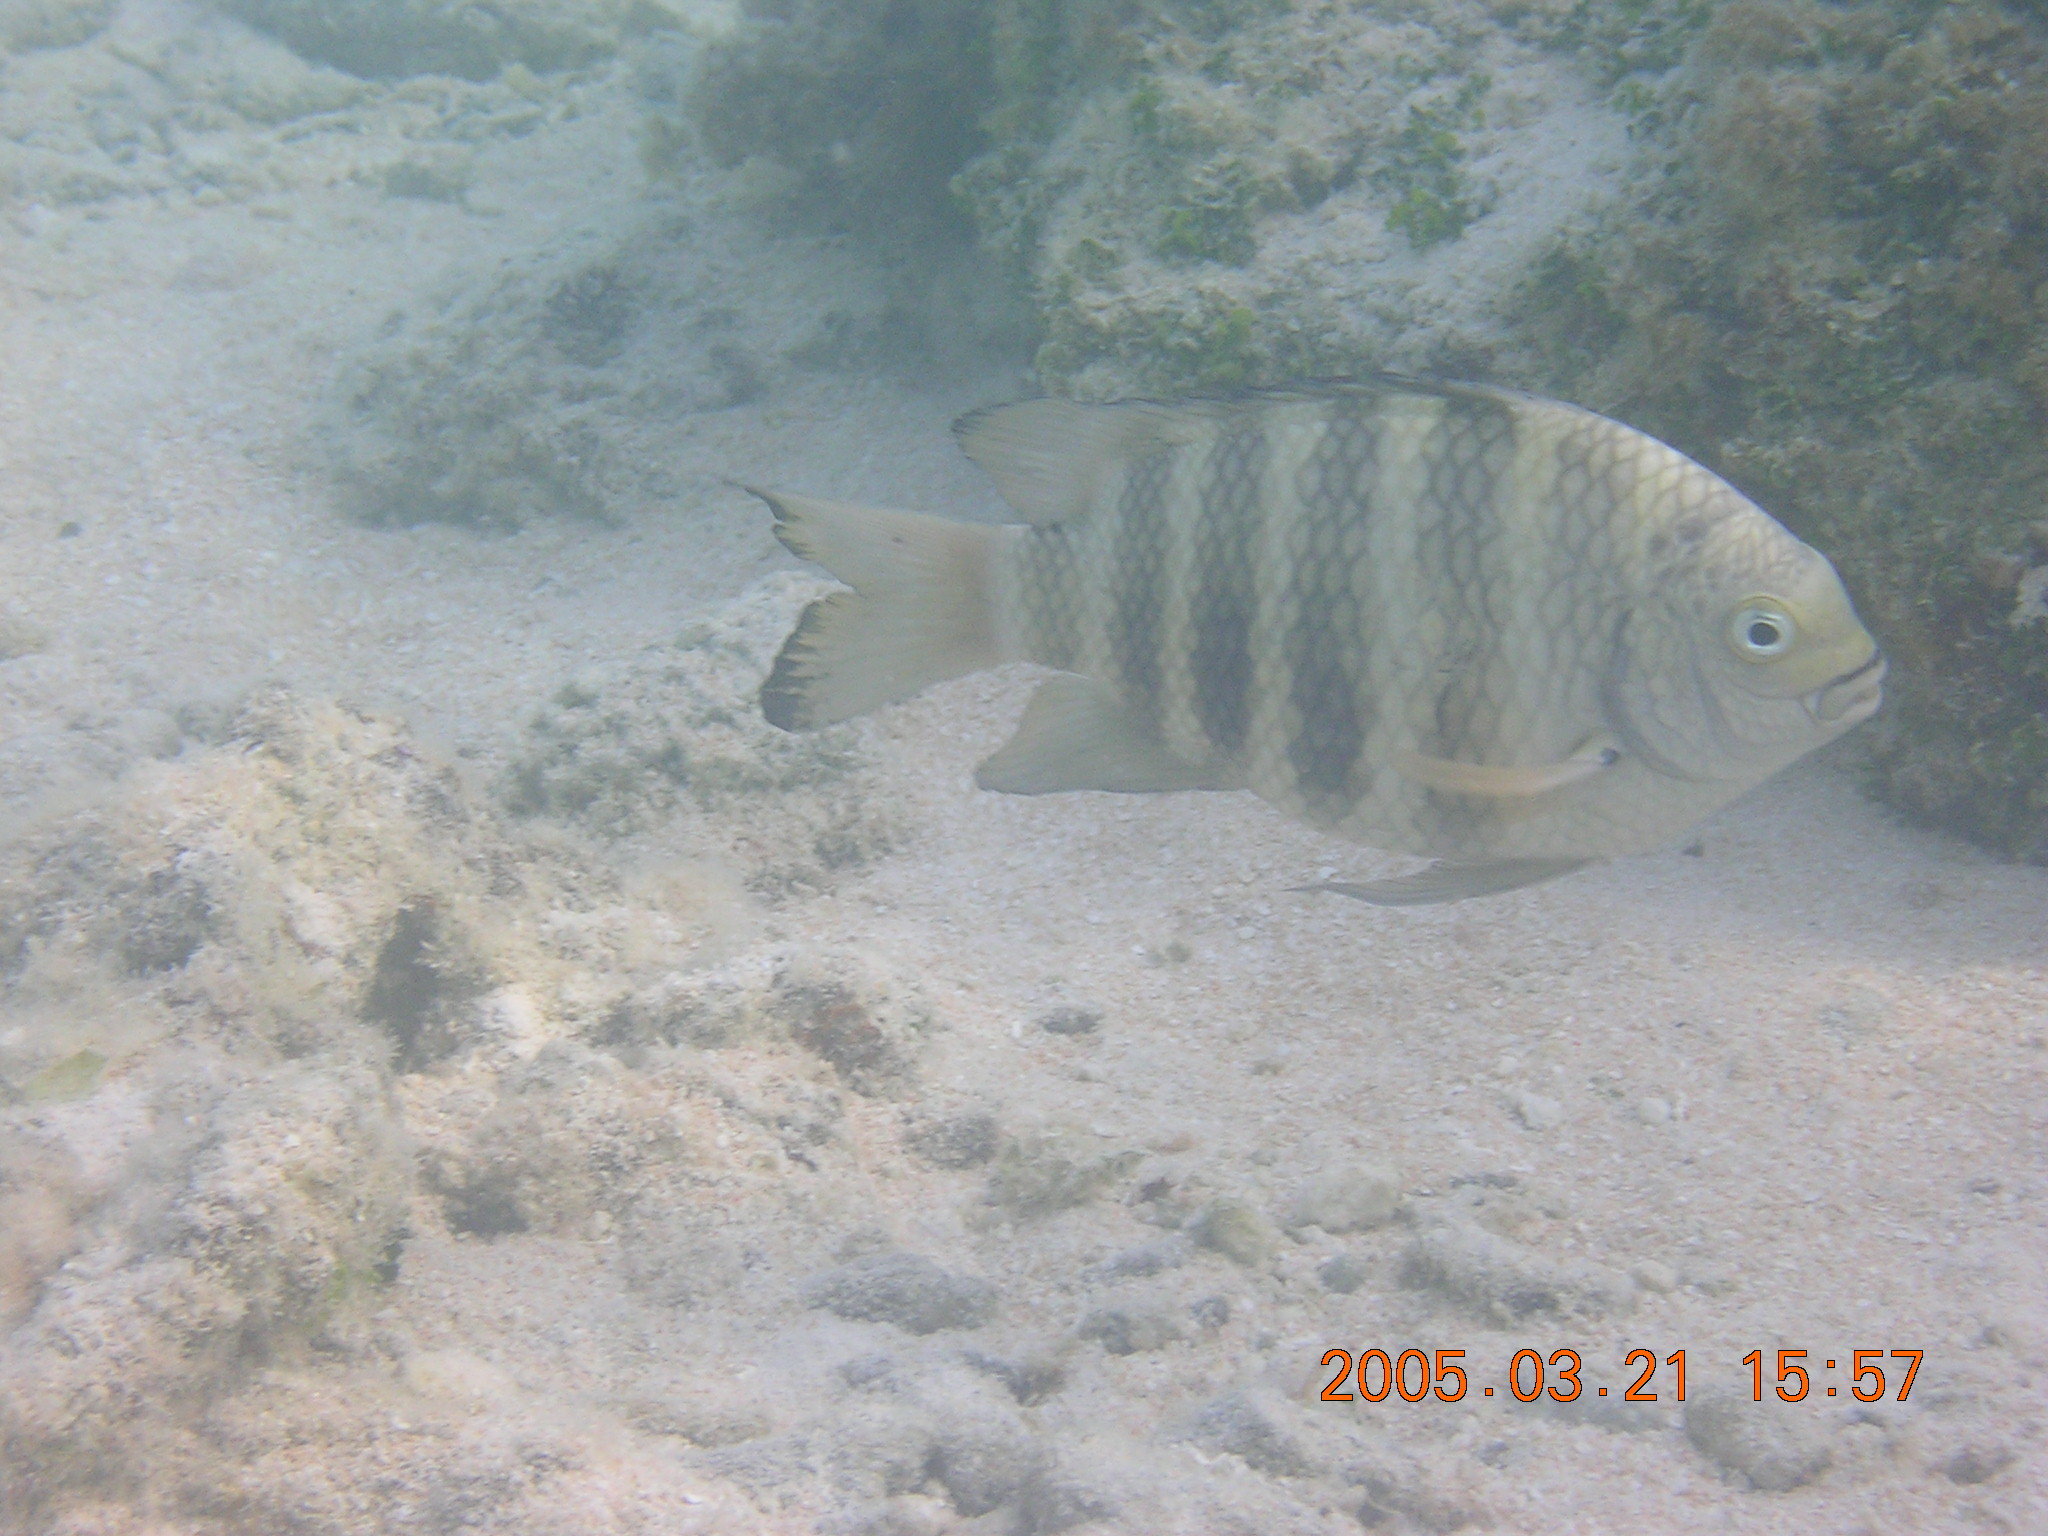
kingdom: Animalia
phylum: Chordata
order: Perciformes
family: Pomacentridae
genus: Abudefduf
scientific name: Abudefduf septemfasciatus
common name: Banded sergeant
